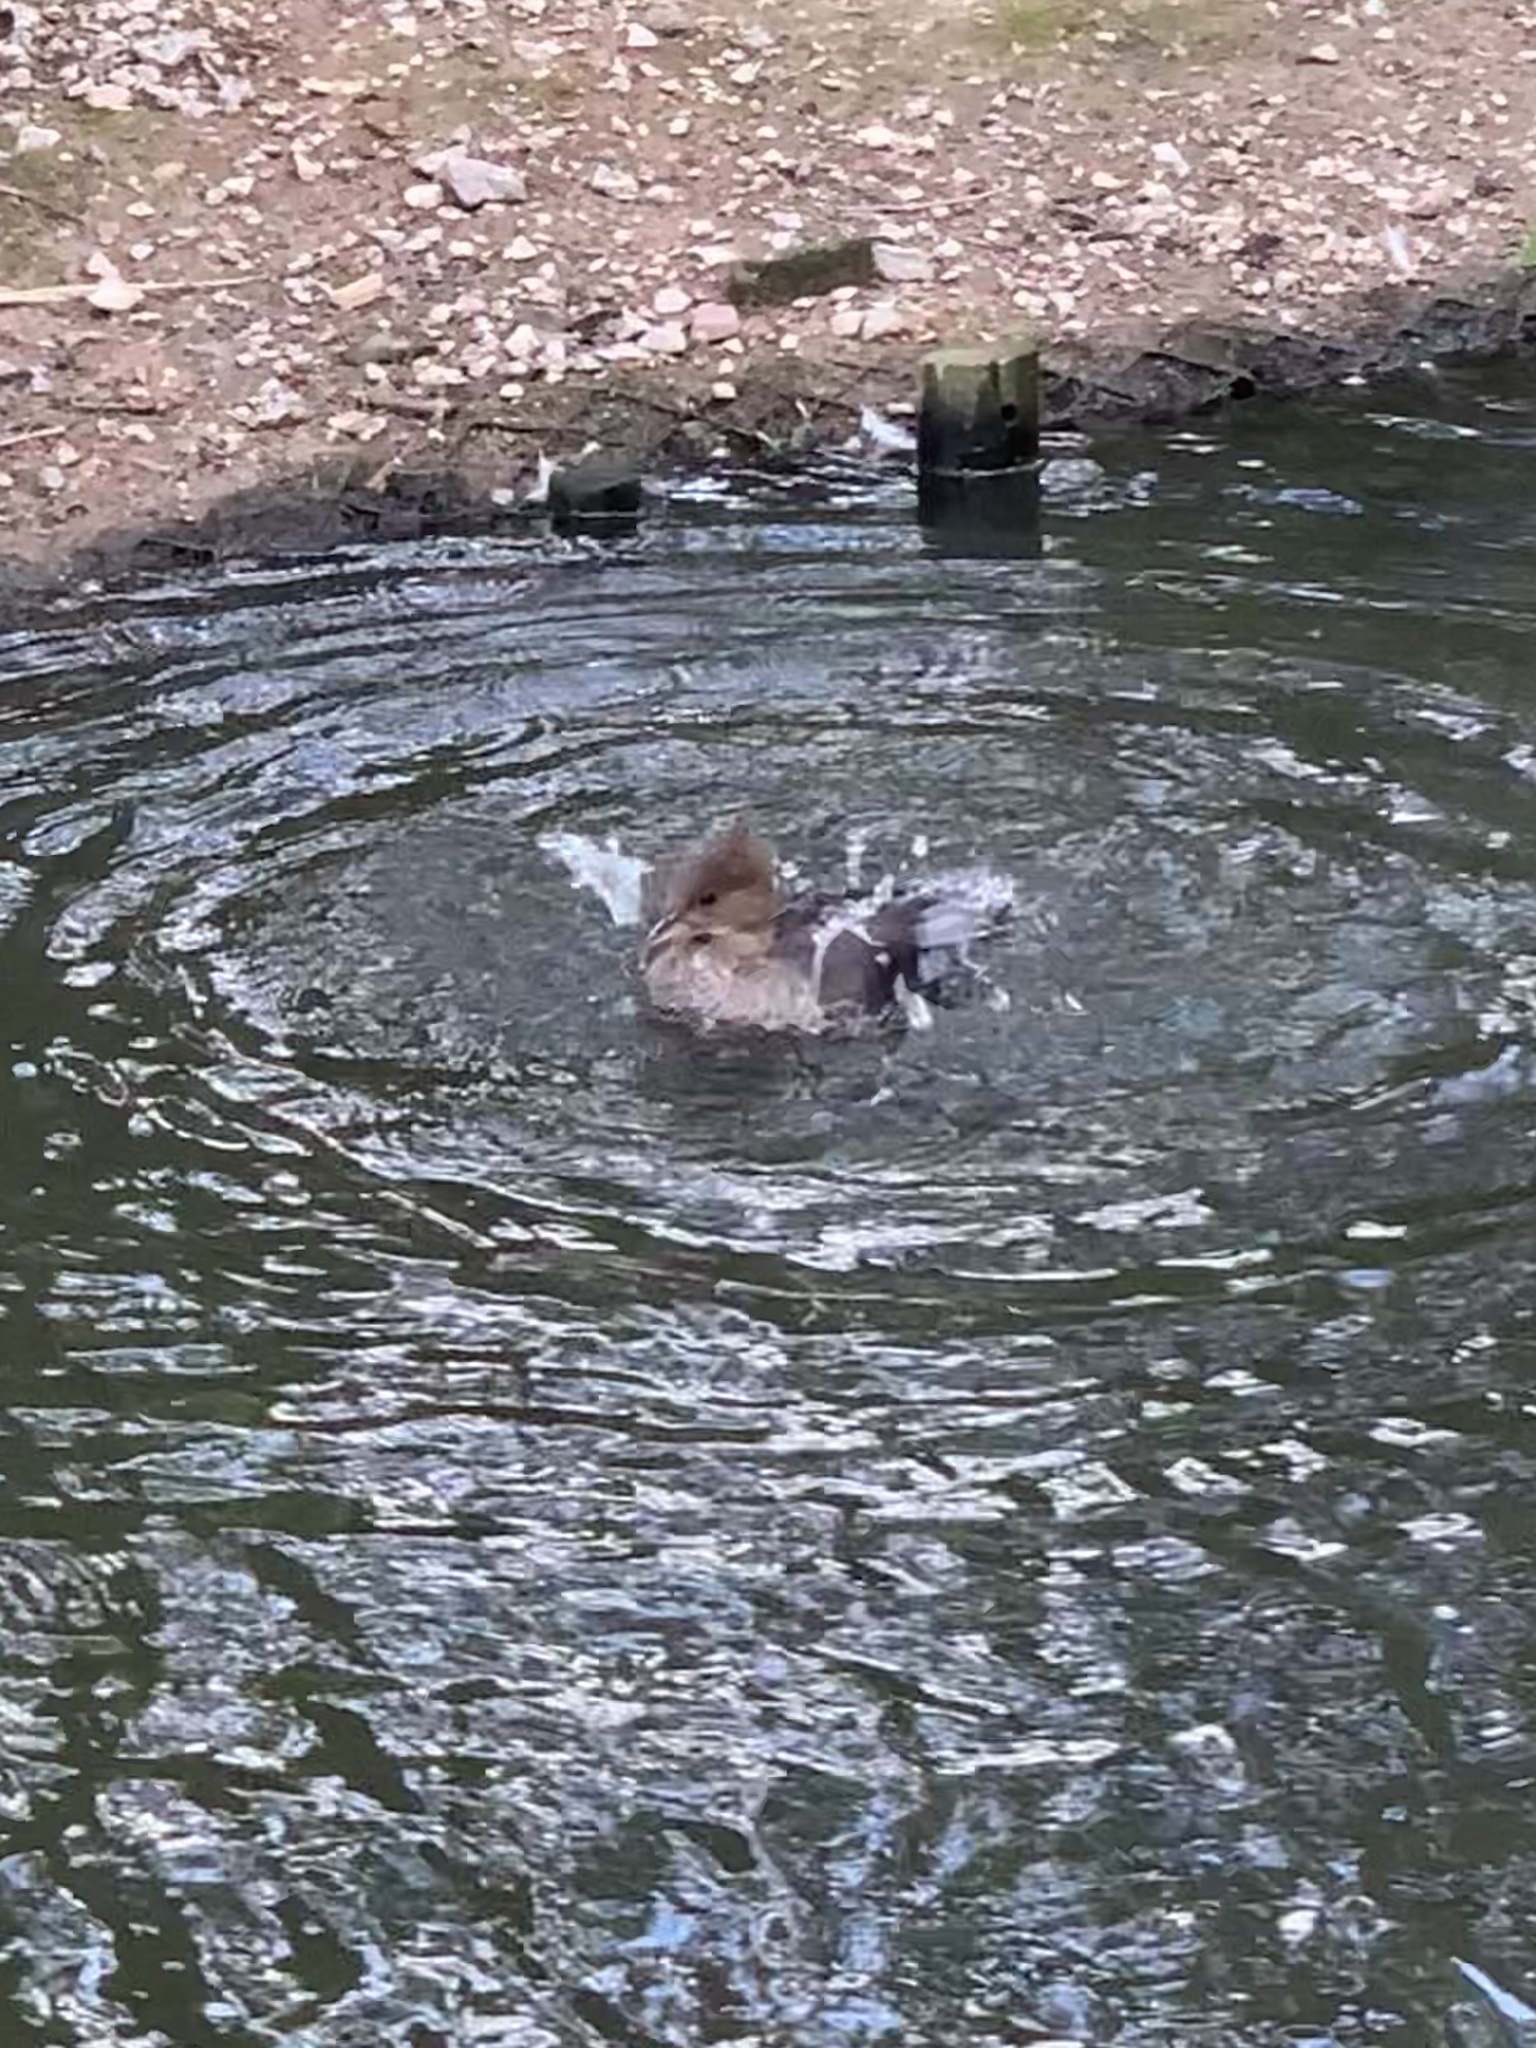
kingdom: Animalia
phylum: Chordata
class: Aves
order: Anseriformes
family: Anatidae
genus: Mergus
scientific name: Mergus merganser
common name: Common merganser
